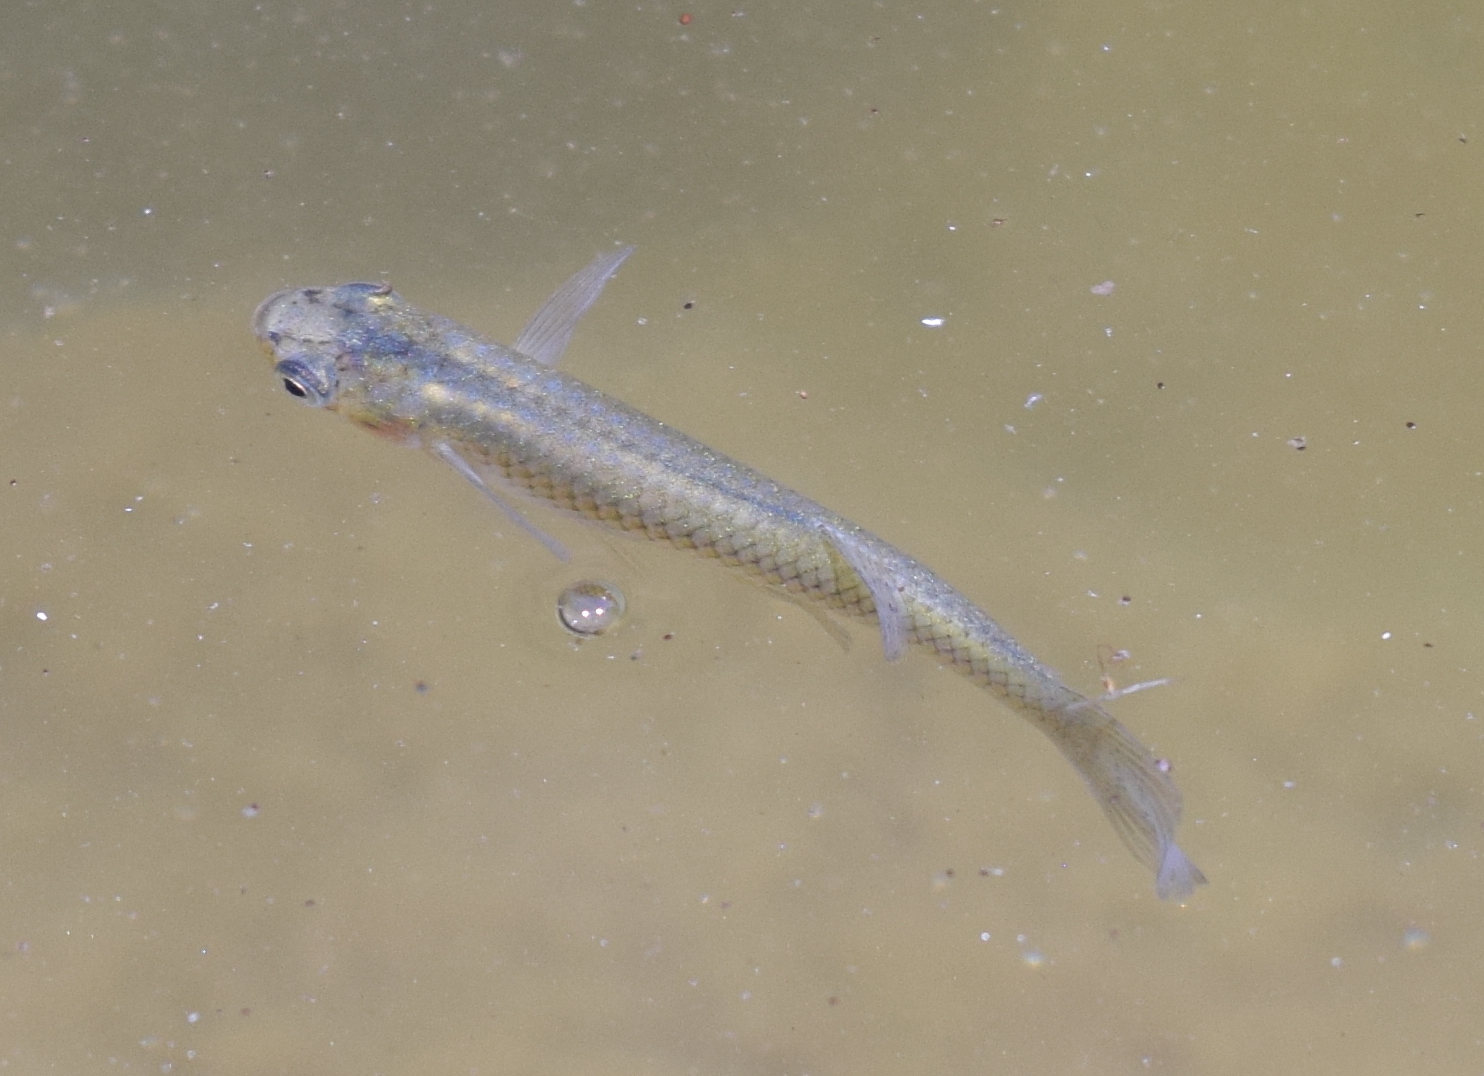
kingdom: Animalia
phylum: Chordata
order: Cyprinodontiformes
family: Poeciliidae
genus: Gambusia
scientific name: Gambusia affinis
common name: Mosquitofish
